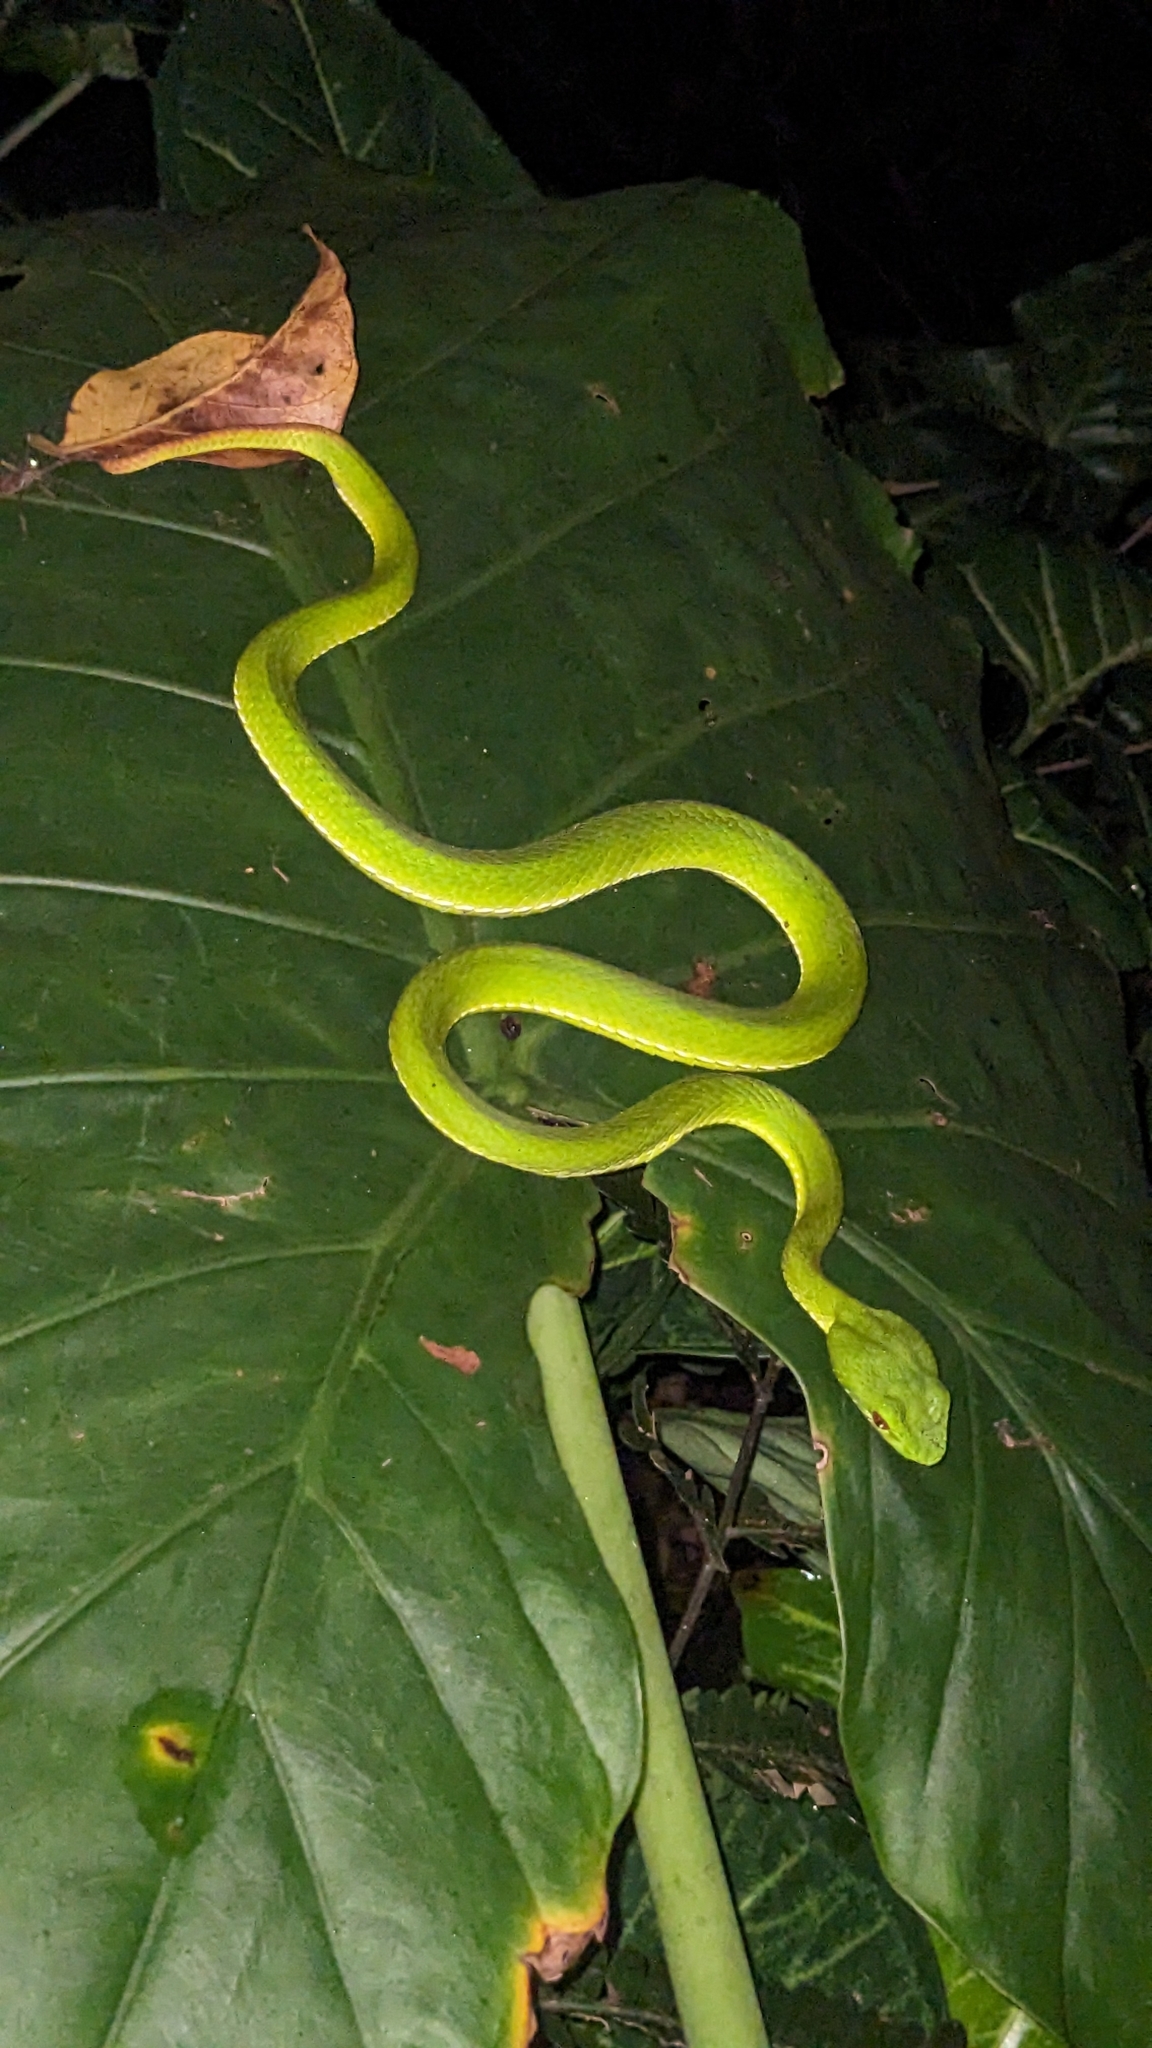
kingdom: Animalia
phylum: Chordata
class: Squamata
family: Viperidae
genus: Trimeresurus
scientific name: Trimeresurus stejnegeri
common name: Chen’s bamboo pit viper
